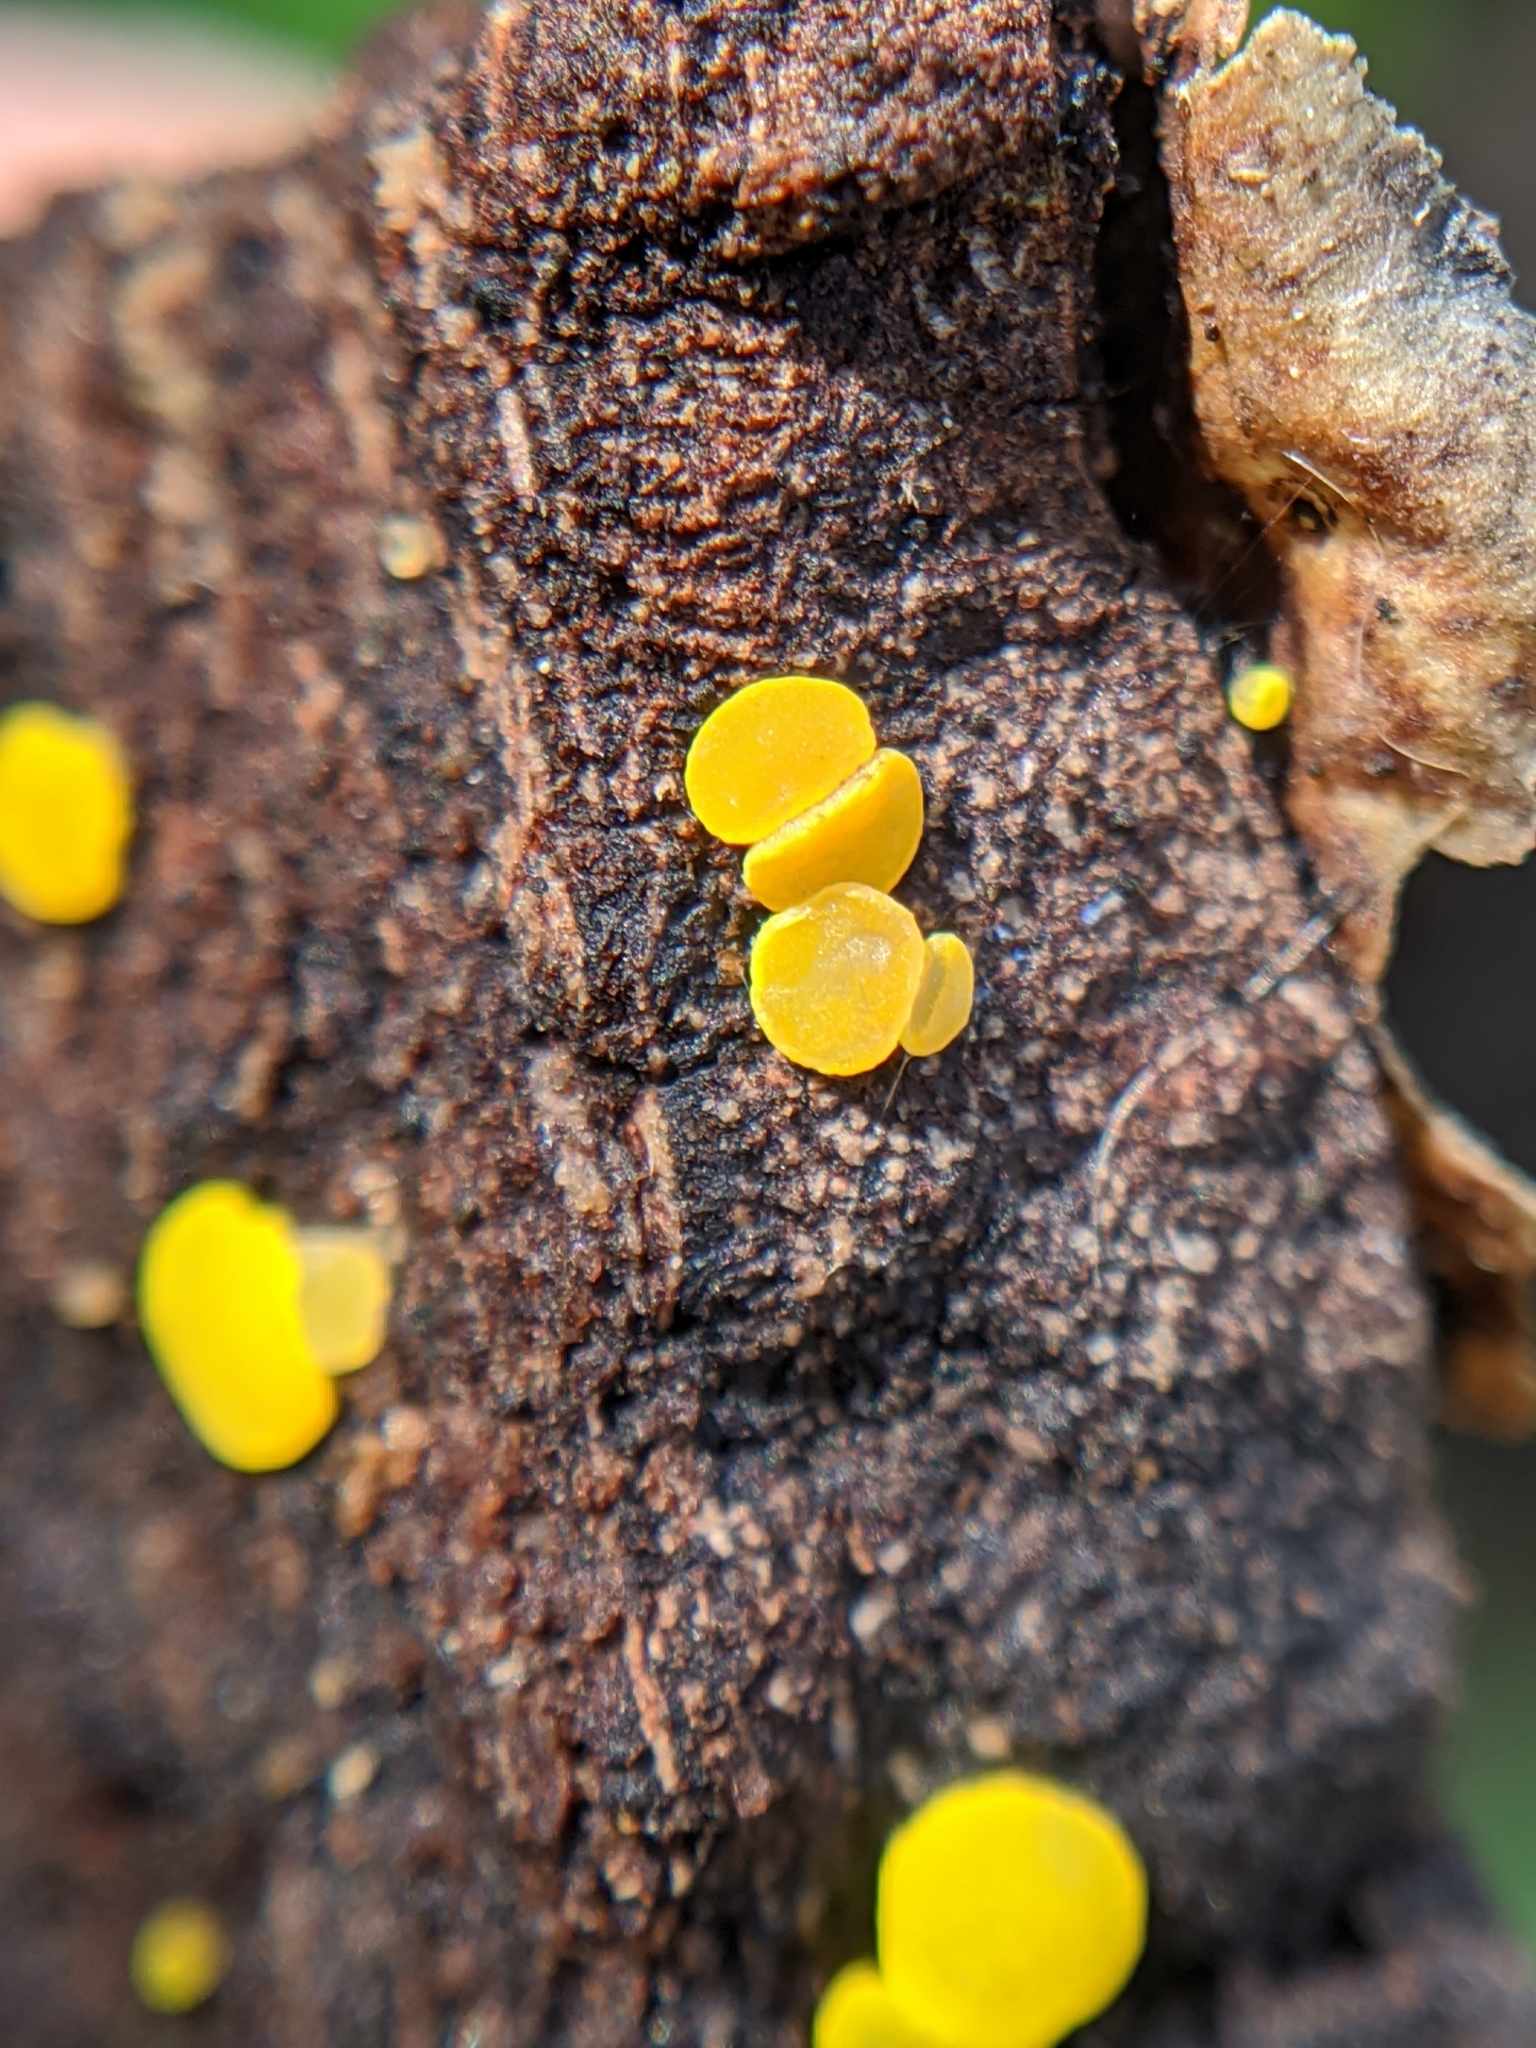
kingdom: Fungi
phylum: Ascomycota
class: Leotiomycetes
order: Helotiales
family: Pezizellaceae
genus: Calycina
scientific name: Calycina citrina
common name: Yellow fairy cups
